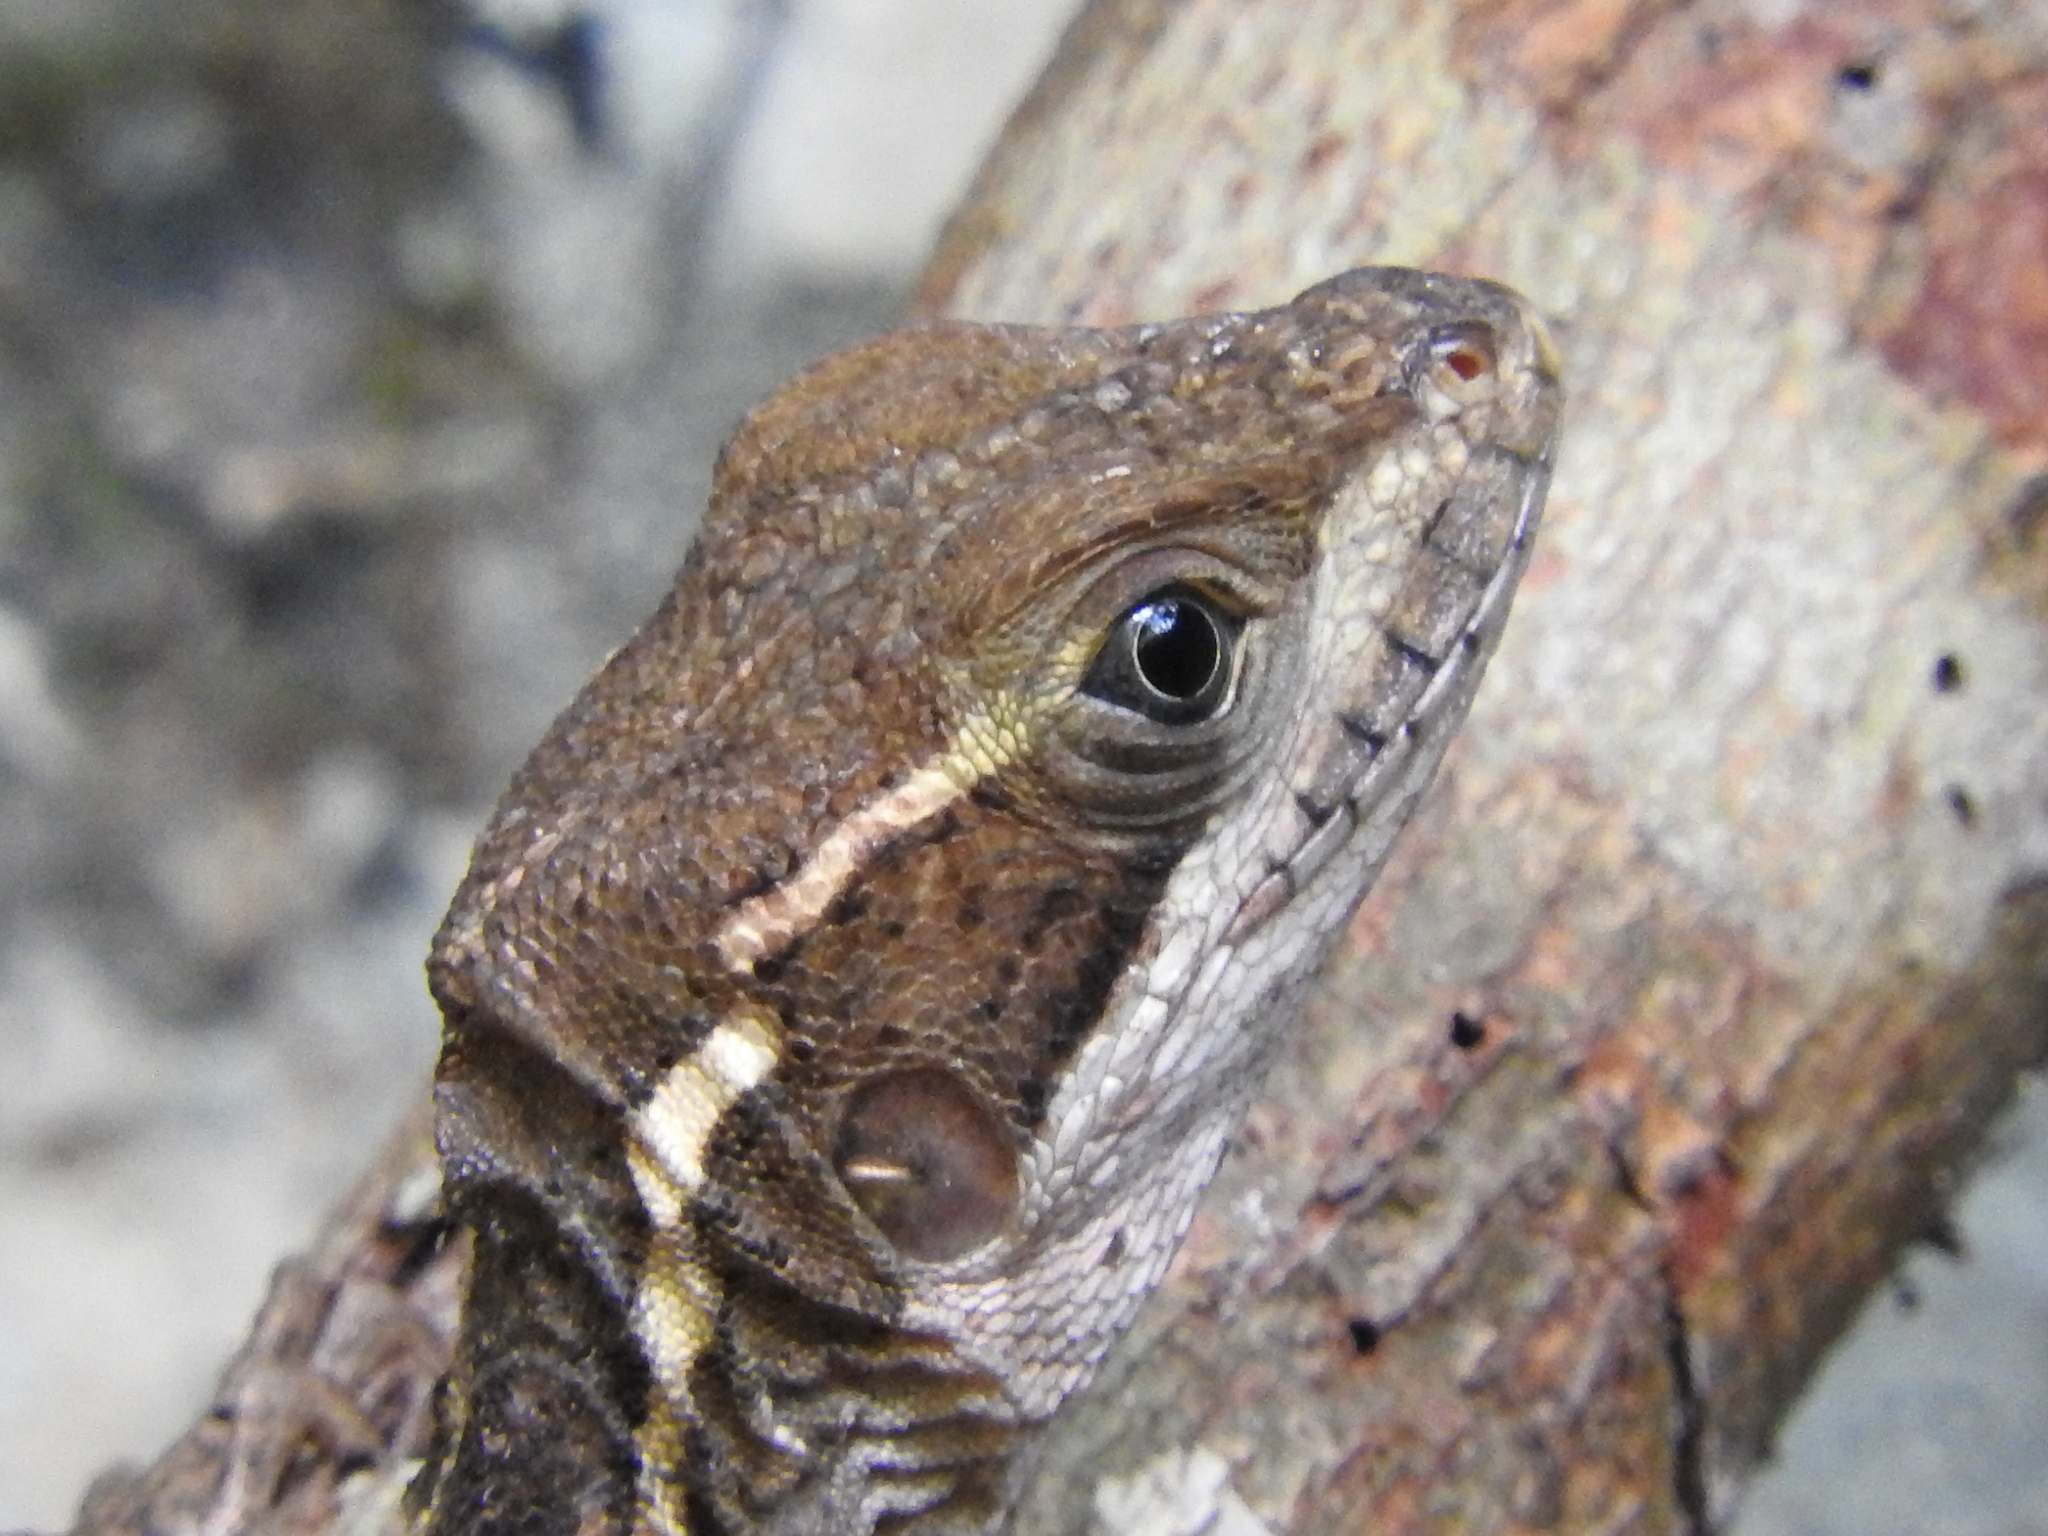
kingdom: Animalia
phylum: Chordata
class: Squamata
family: Corytophanidae
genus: Basiliscus
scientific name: Basiliscus vittatus
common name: Brown basilisk
